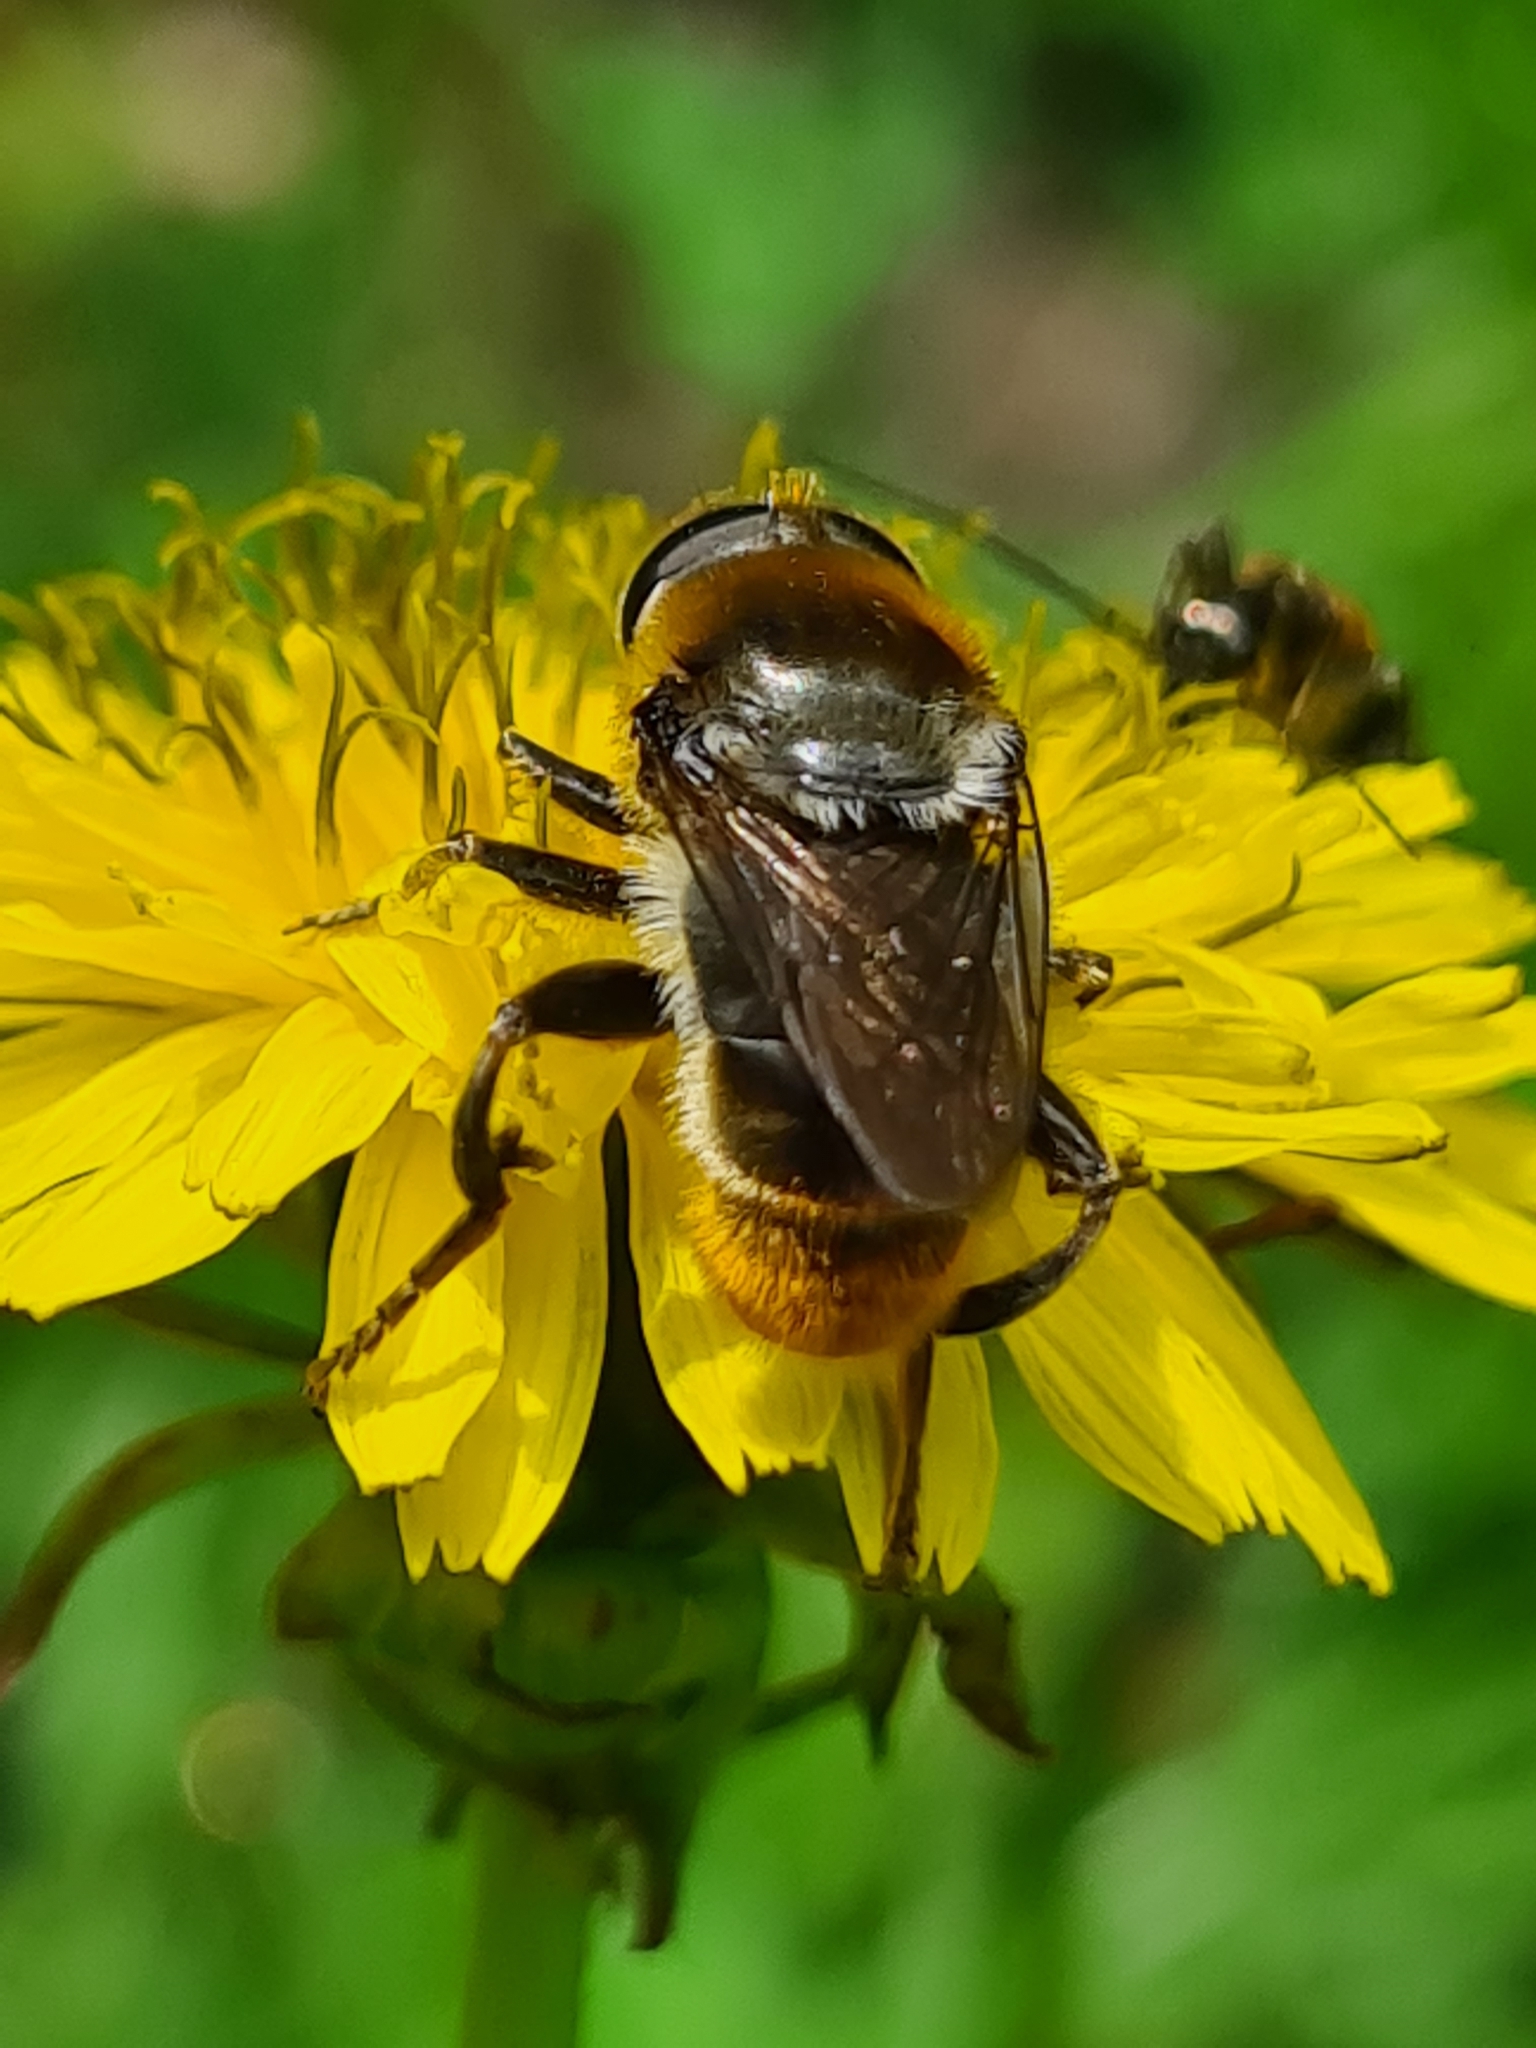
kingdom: Animalia
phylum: Arthropoda
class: Insecta
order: Diptera
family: Syrphidae
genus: Merodon
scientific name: Merodon constans
